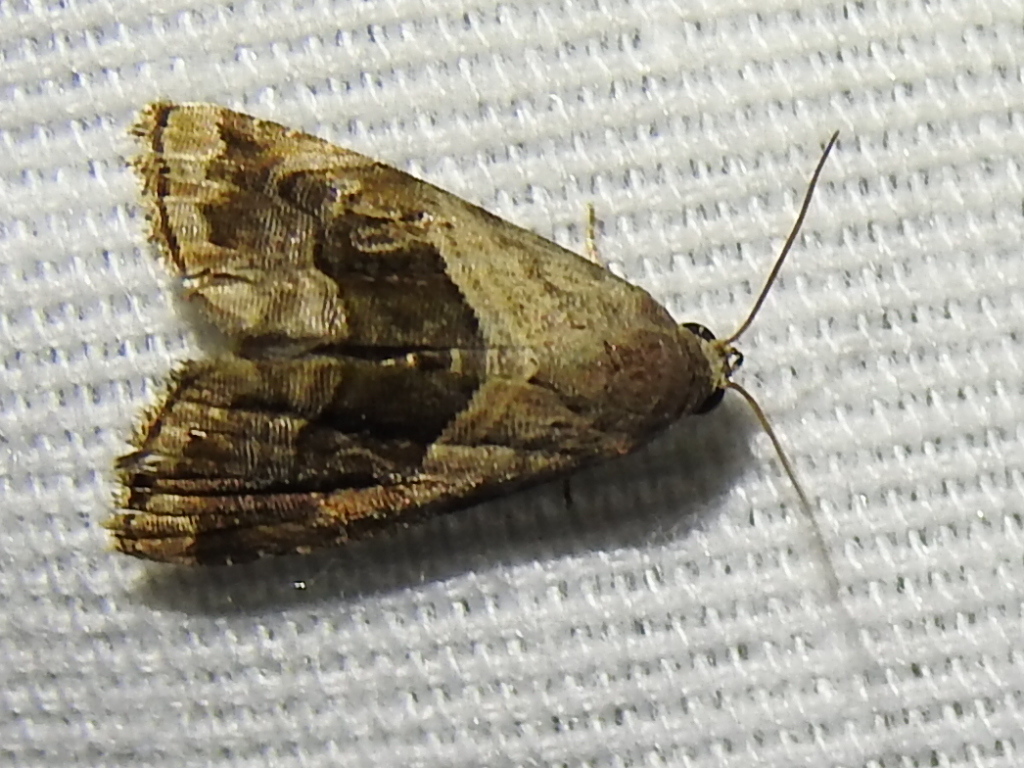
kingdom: Animalia
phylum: Arthropoda
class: Insecta
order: Lepidoptera
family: Noctuidae
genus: Tripudia
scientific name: Tripudia quadrifera
